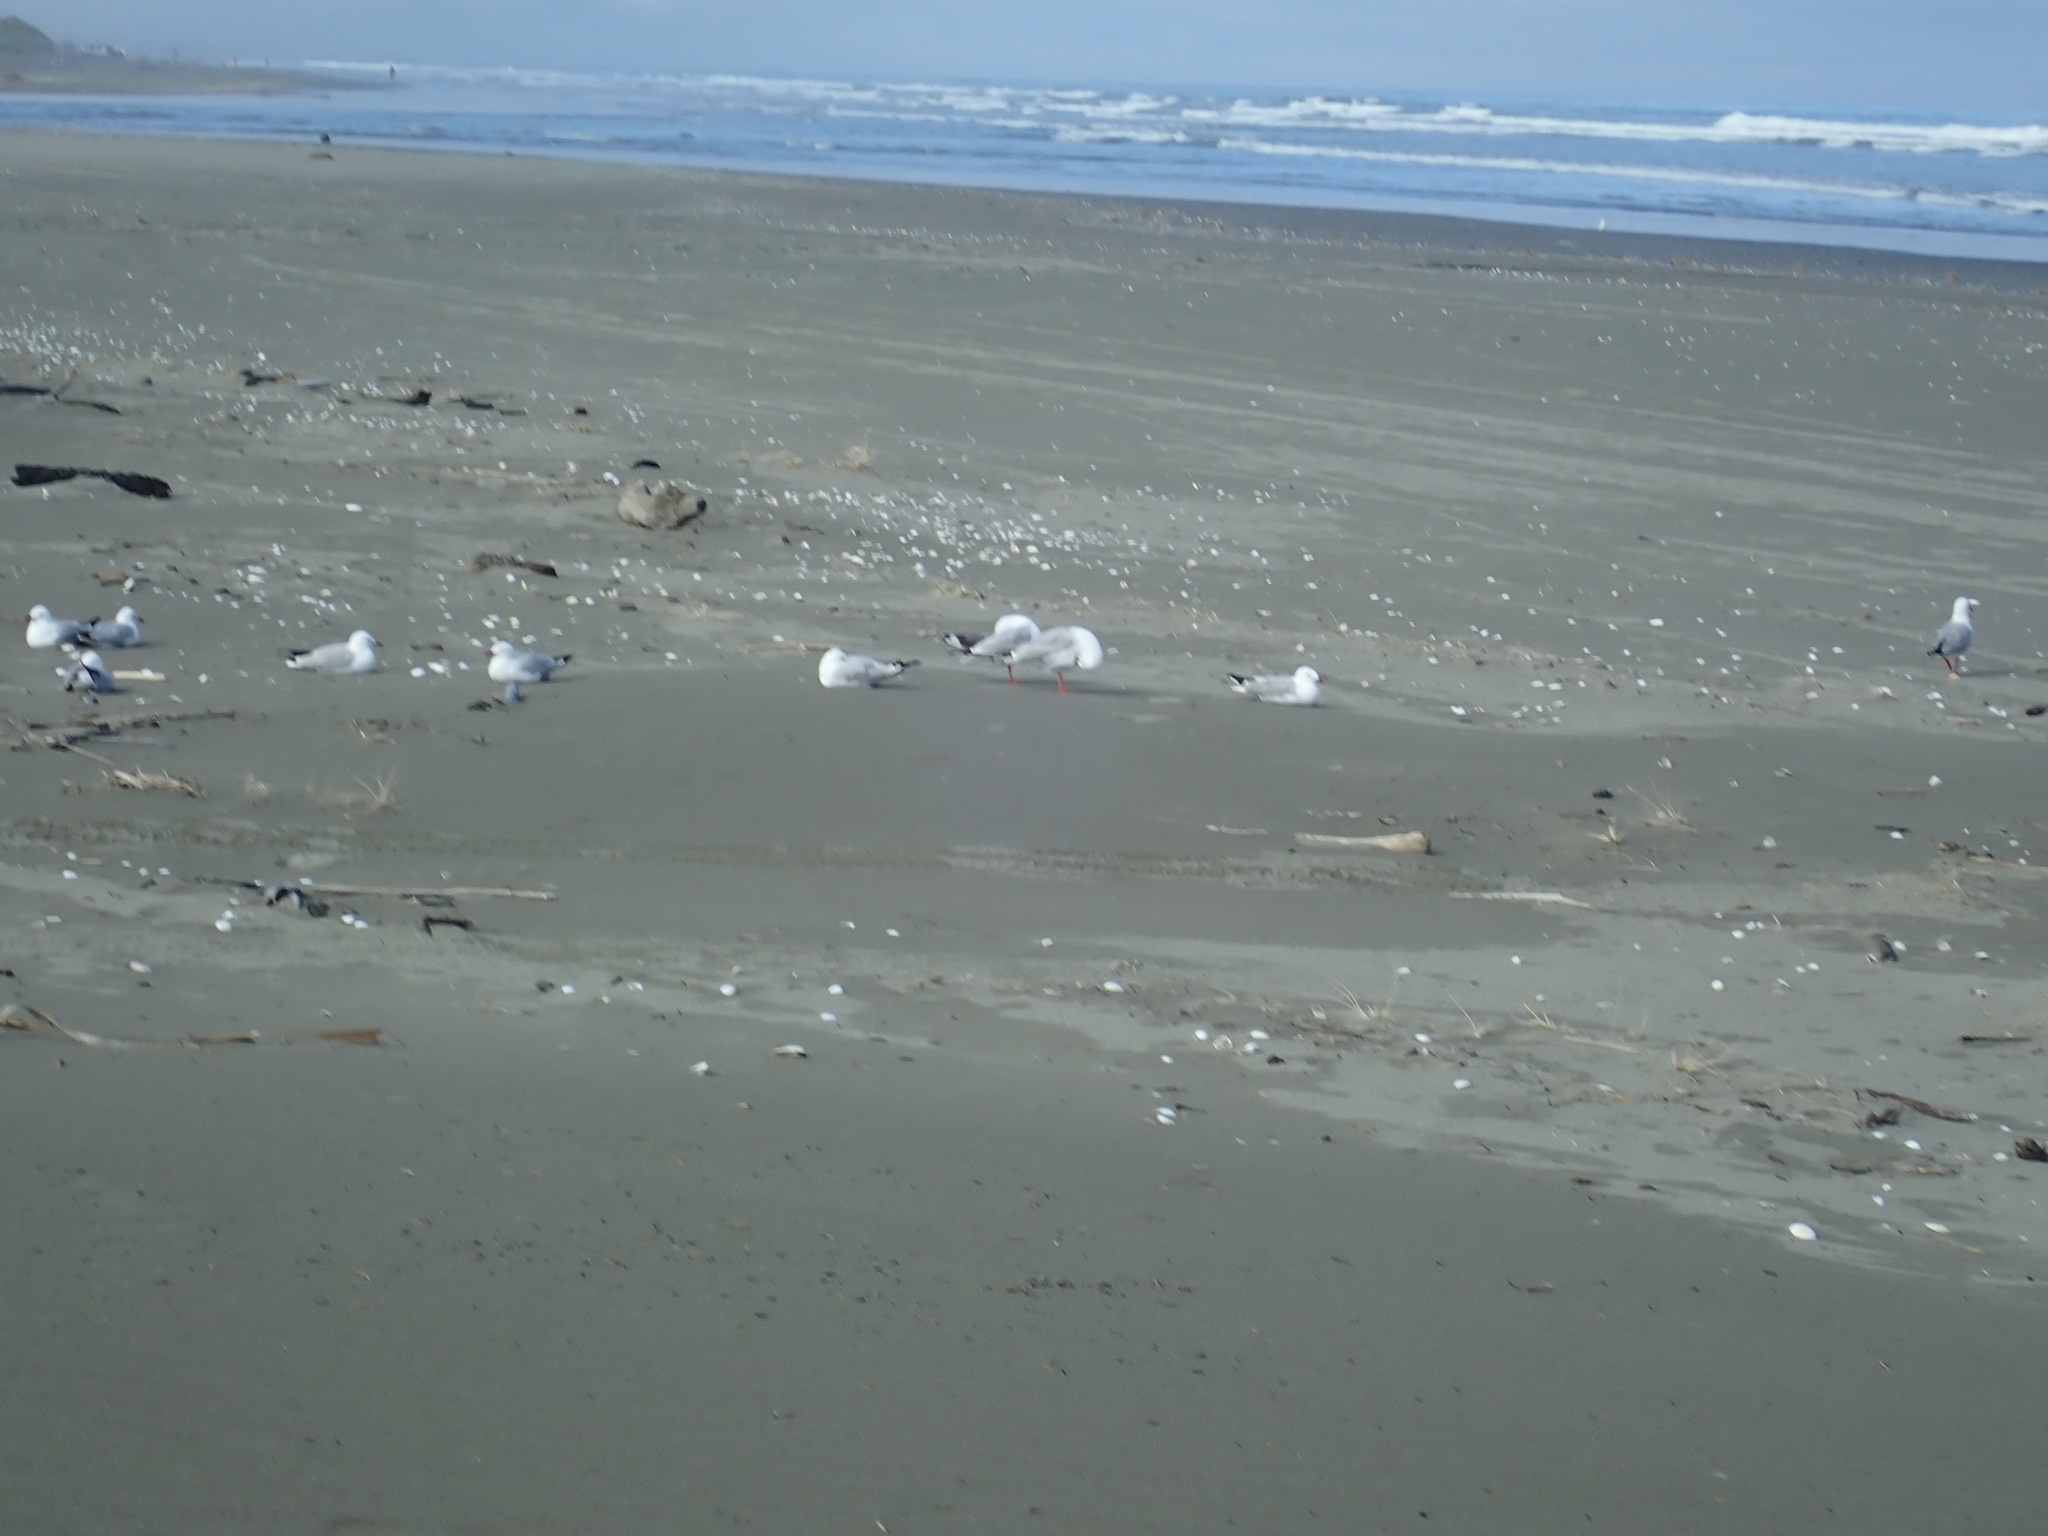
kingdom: Animalia
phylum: Chordata
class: Aves
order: Charadriiformes
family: Laridae
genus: Chroicocephalus
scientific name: Chroicocephalus novaehollandiae
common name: Silver gull
